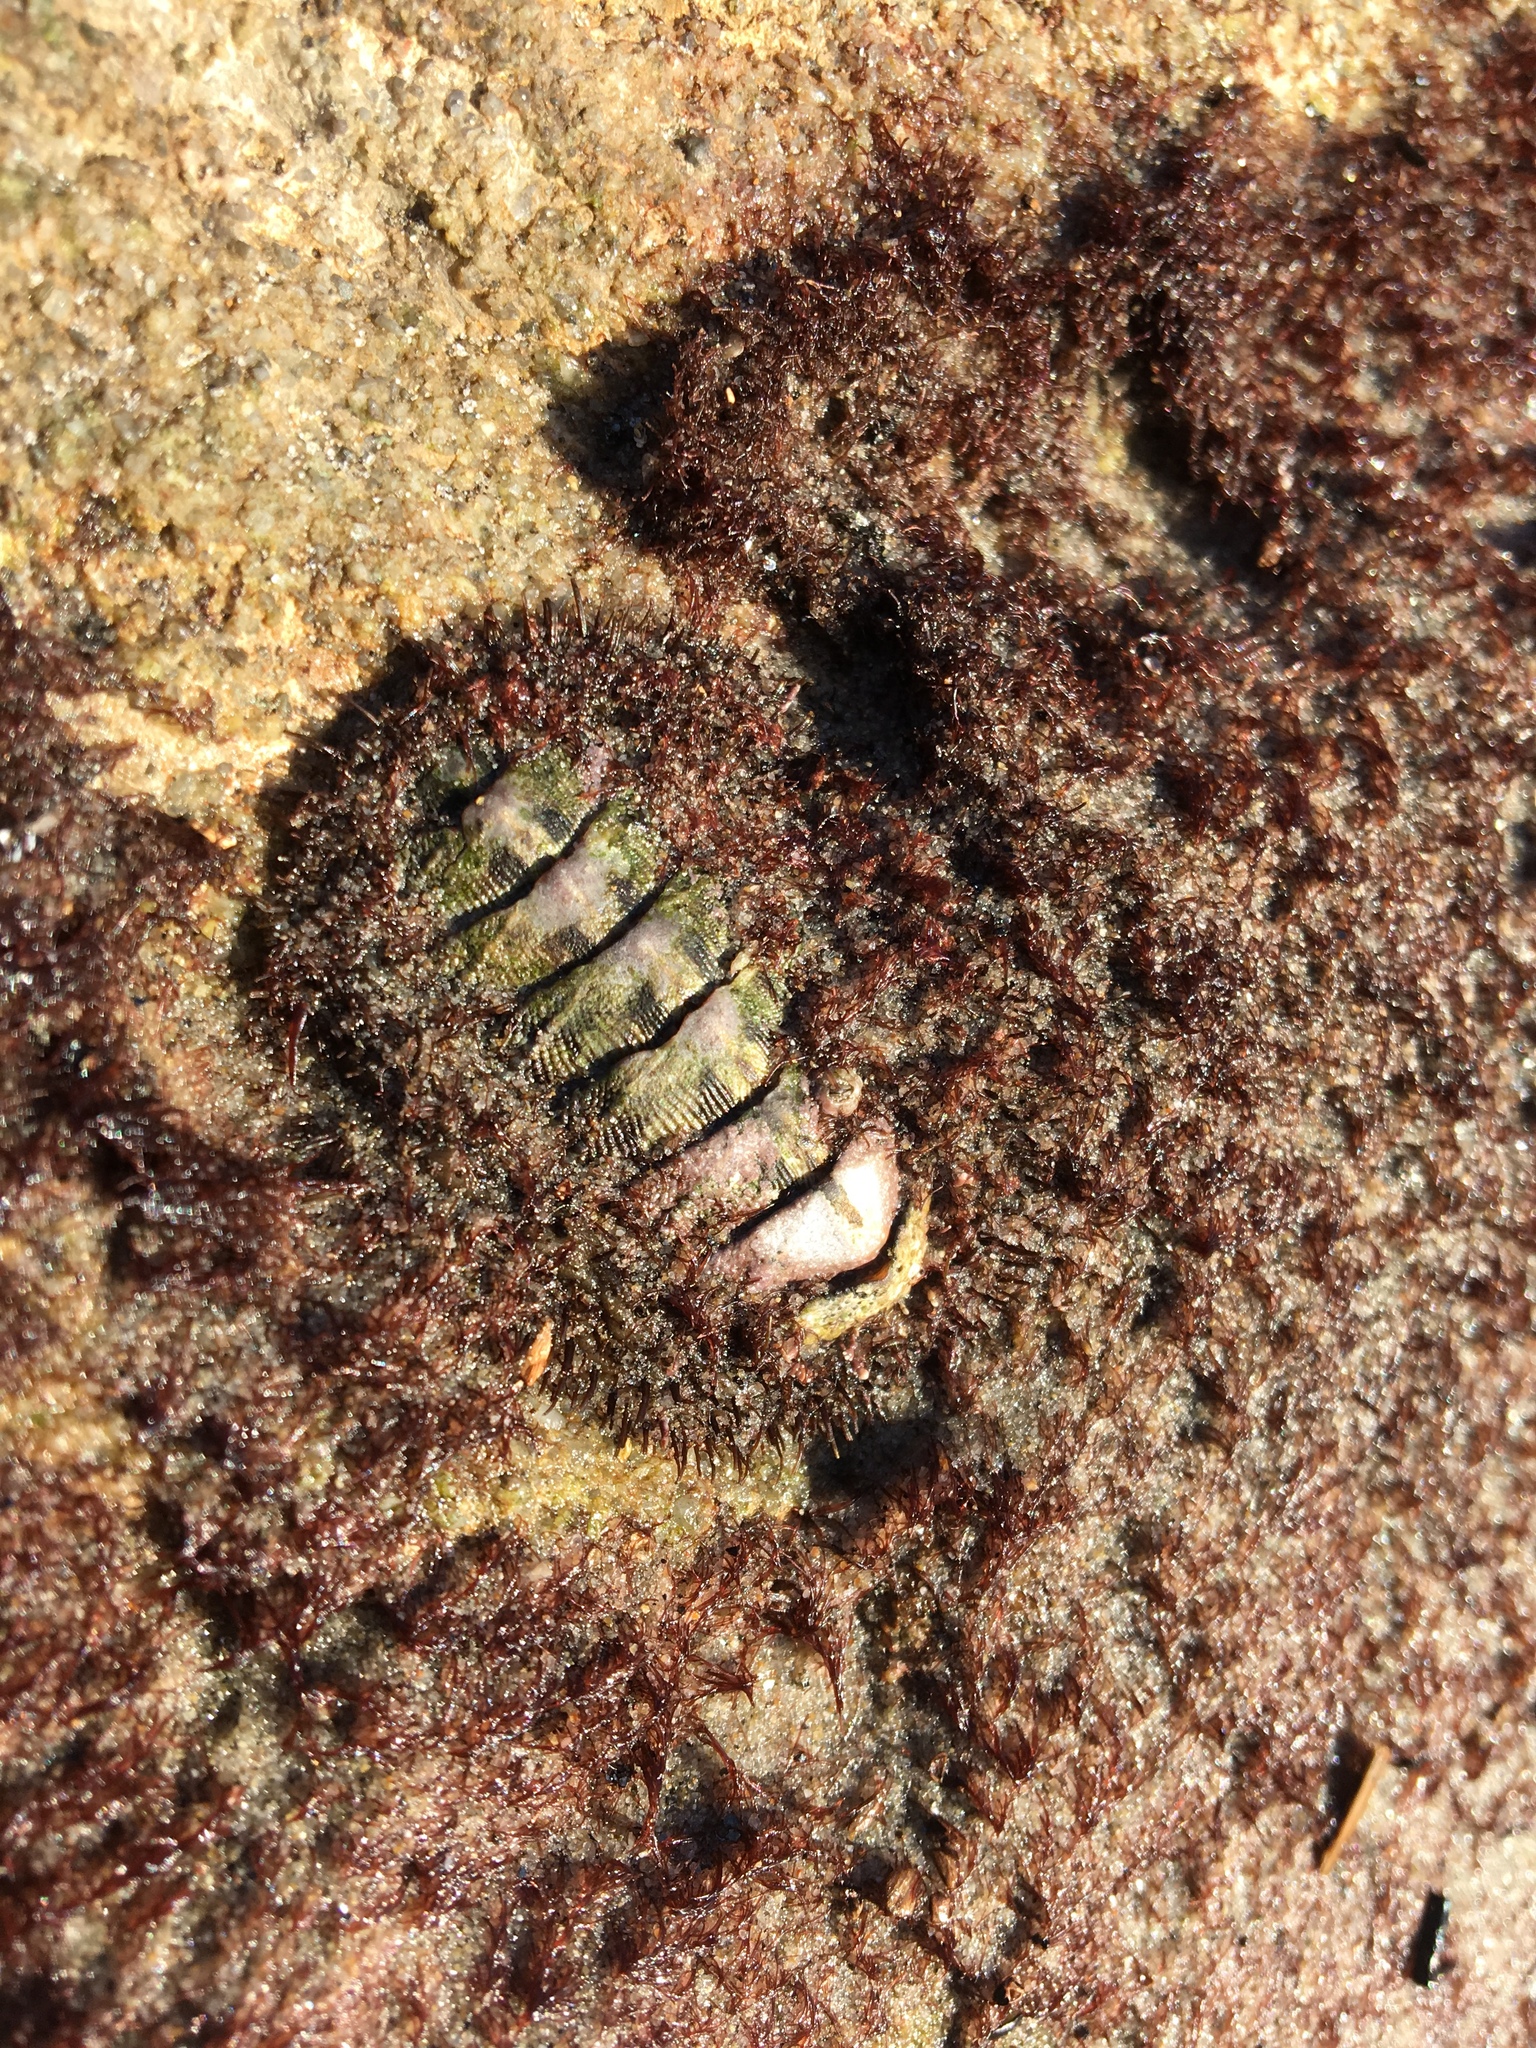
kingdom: Animalia
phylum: Mollusca
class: Polyplacophora
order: Chitonida
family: Mopaliidae
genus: Mopalia
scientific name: Mopalia muscosa
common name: Mossy chiton
